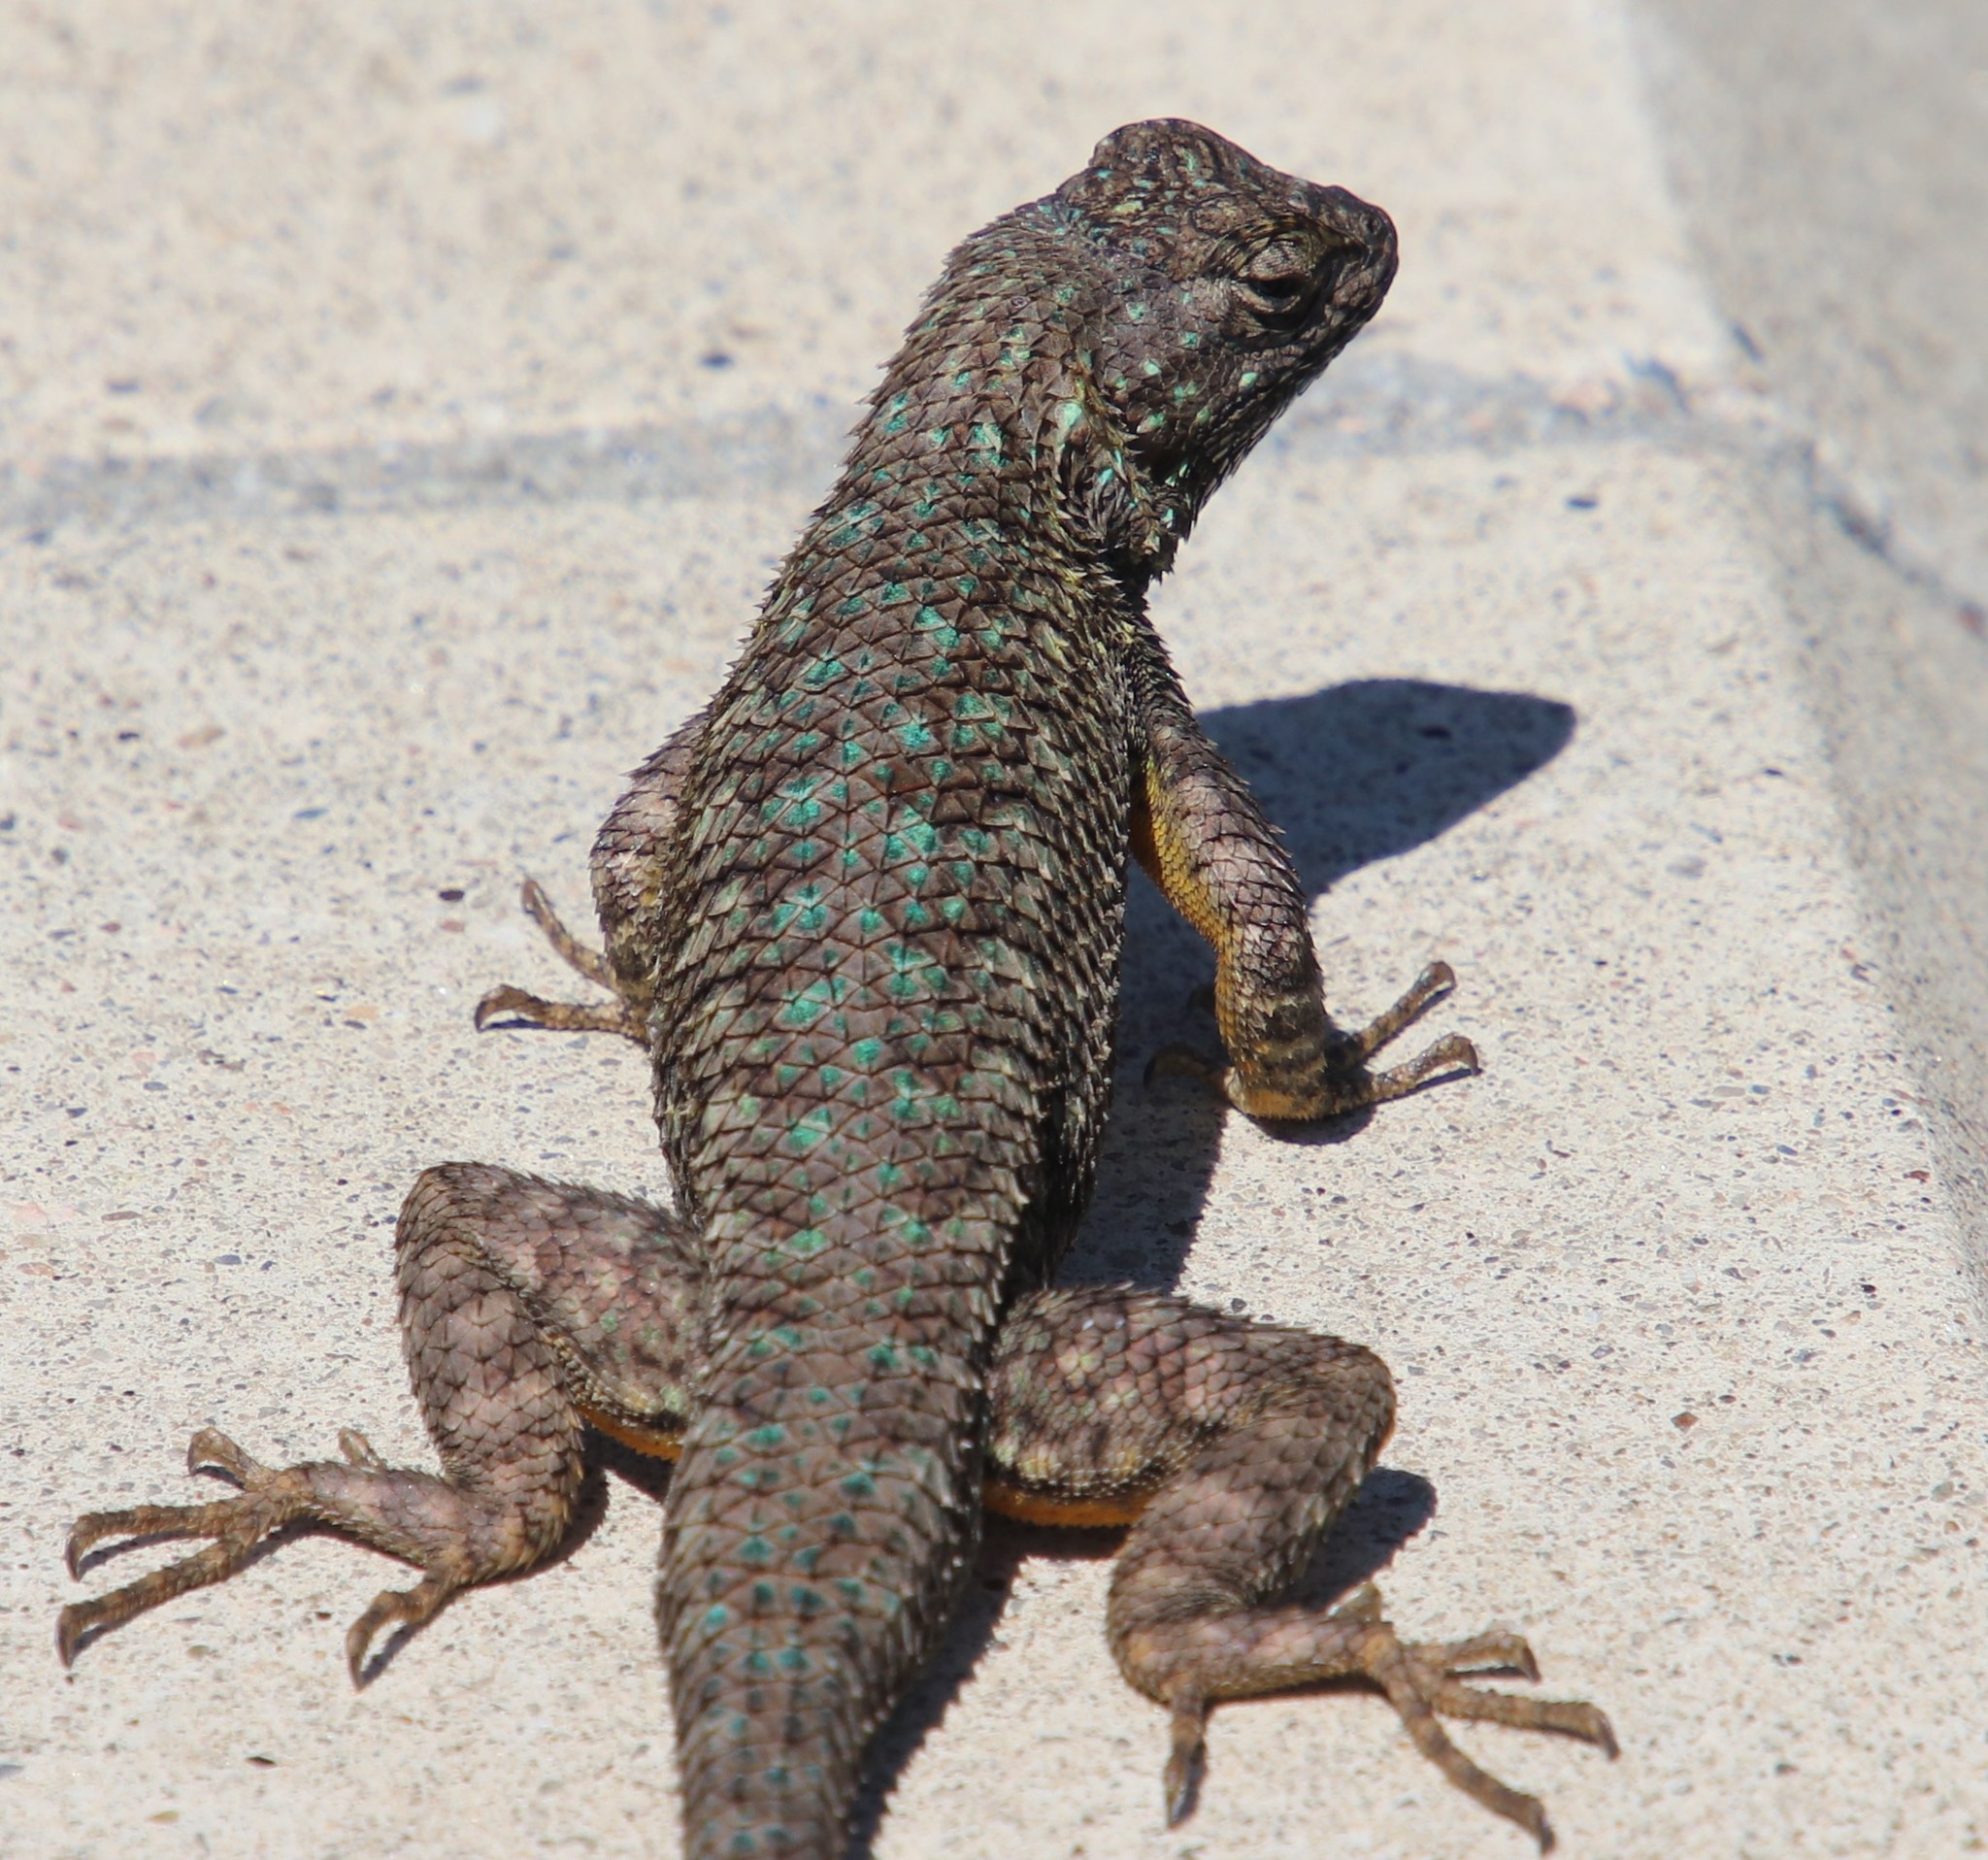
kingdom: Animalia
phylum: Chordata
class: Squamata
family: Phrynosomatidae
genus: Sceloporus
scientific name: Sceloporus occidentalis
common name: Western fence lizard
